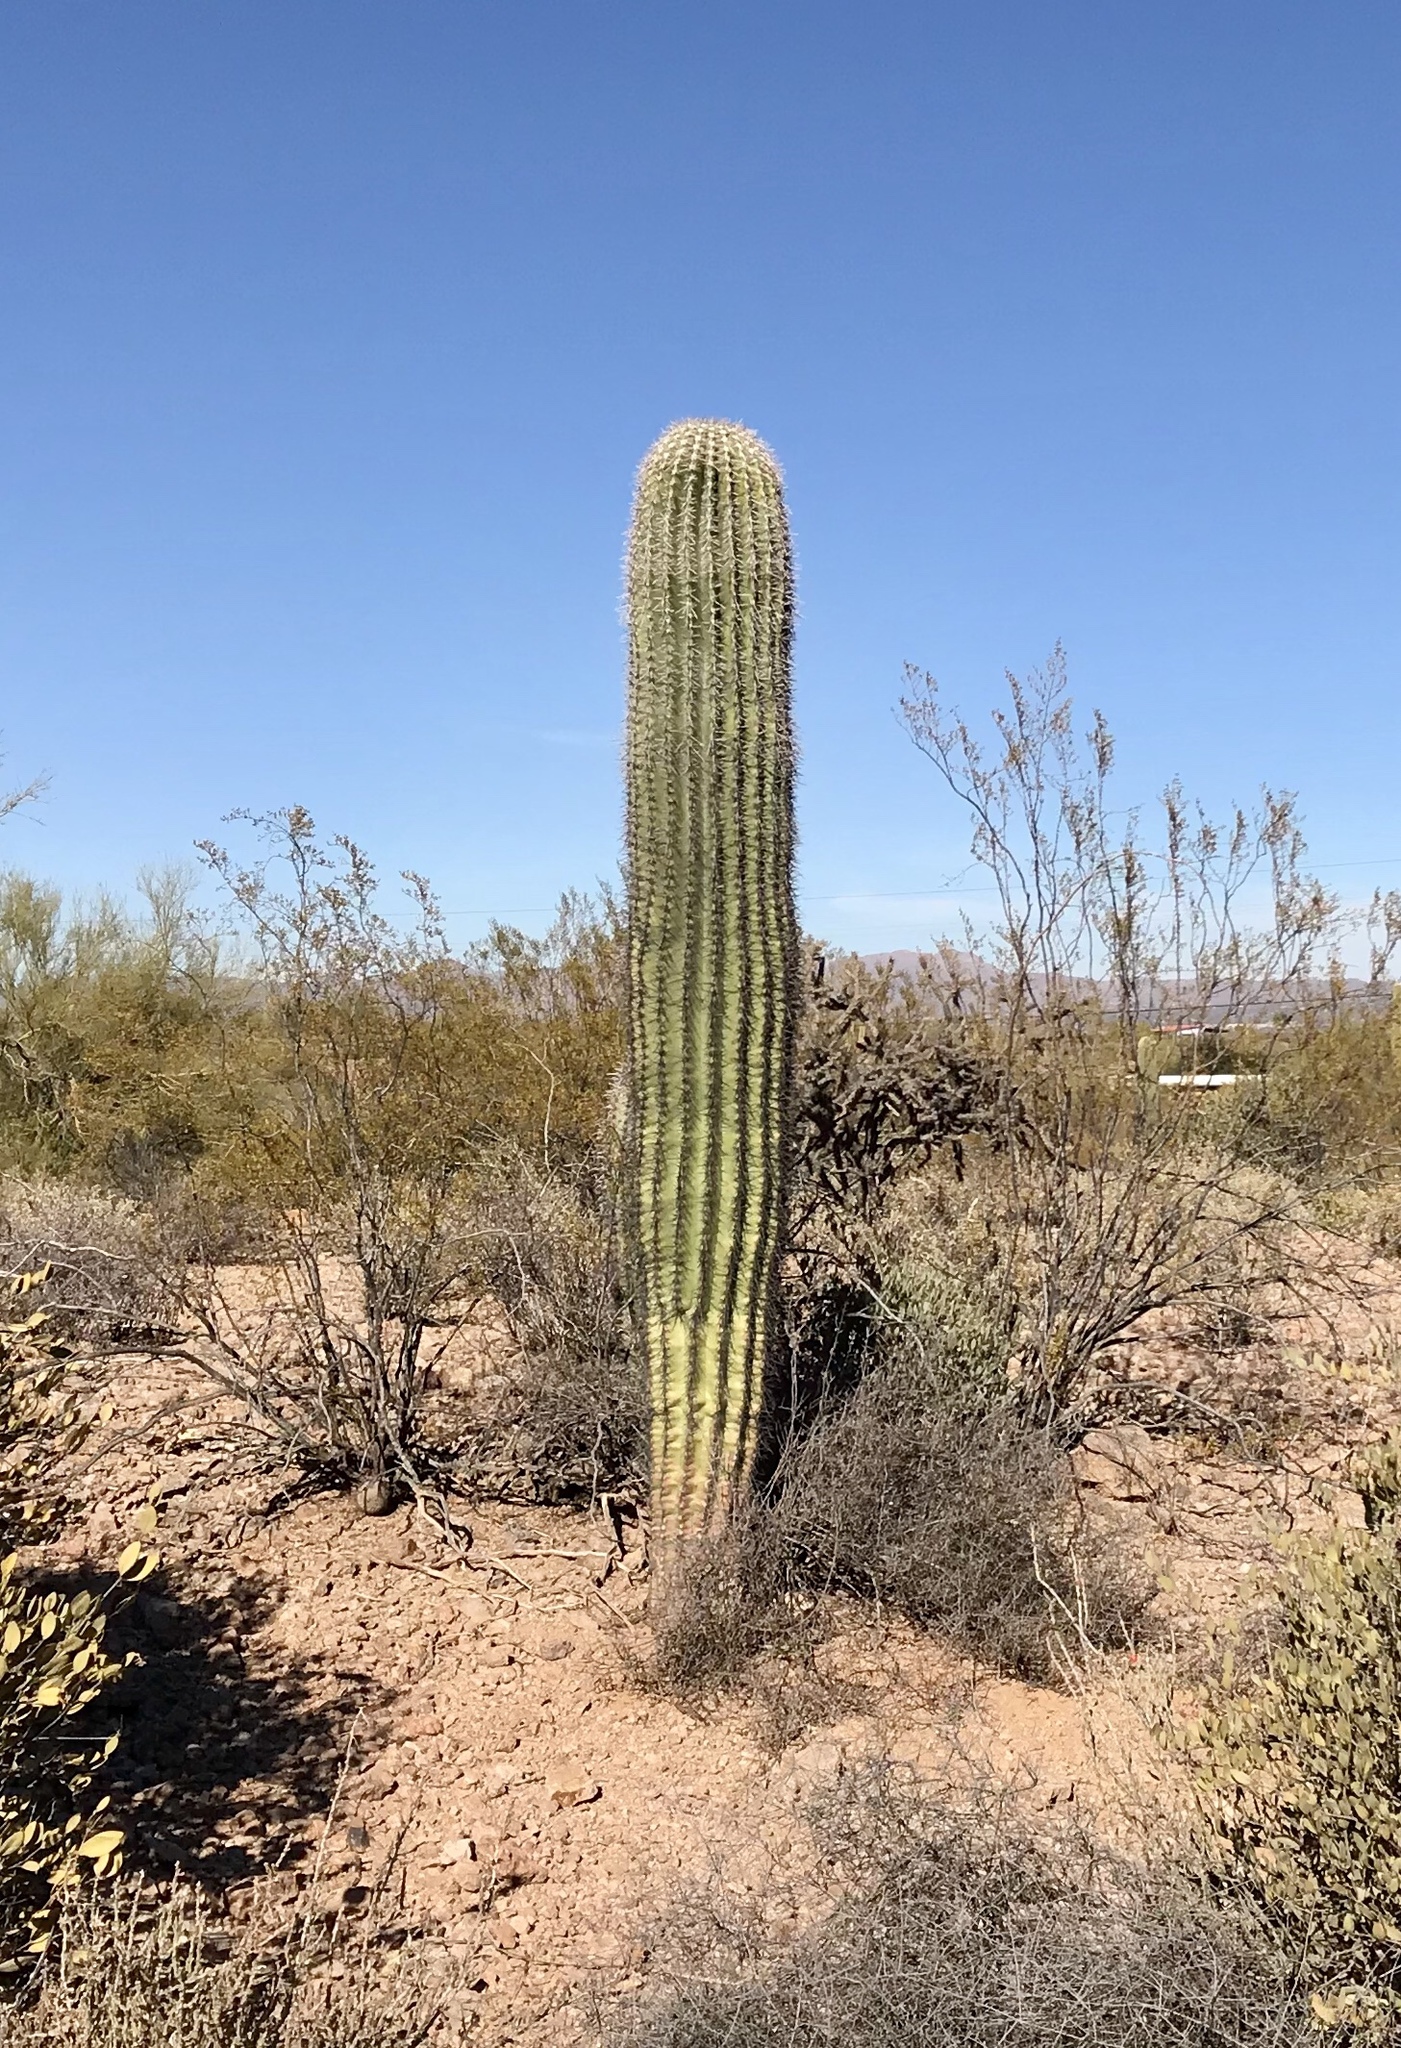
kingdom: Plantae
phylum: Tracheophyta
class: Magnoliopsida
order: Caryophyllales
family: Cactaceae
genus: Carnegiea
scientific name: Carnegiea gigantea
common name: Saguaro
